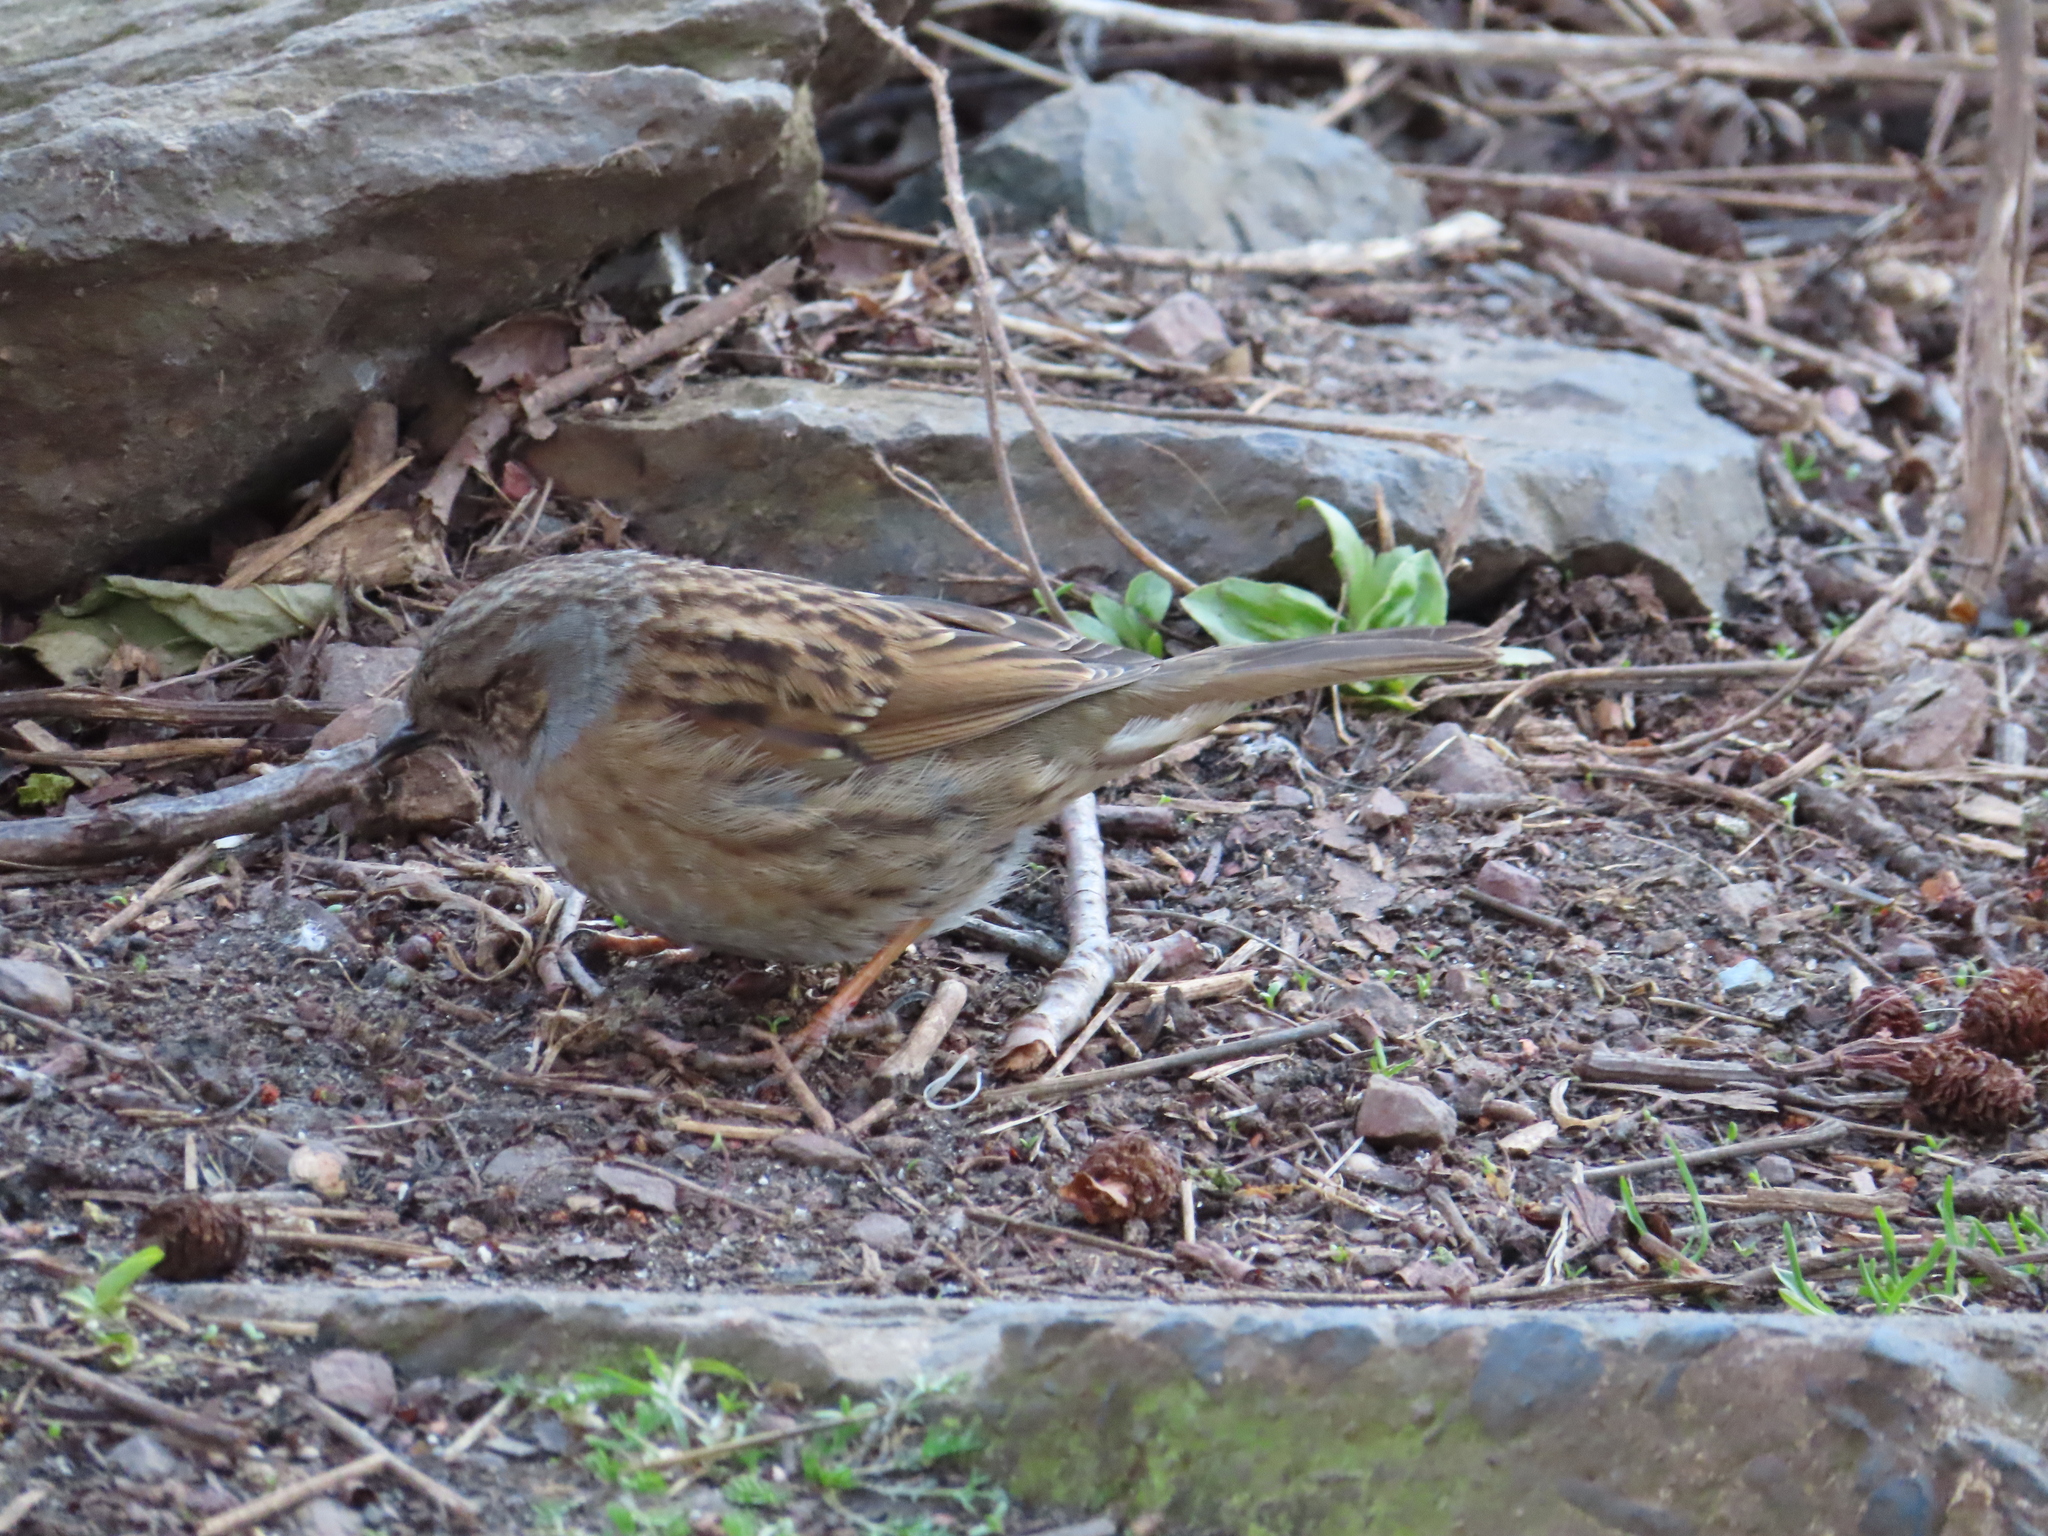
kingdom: Animalia
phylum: Chordata
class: Aves
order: Passeriformes
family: Prunellidae
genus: Prunella
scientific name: Prunella modularis
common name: Dunnock
